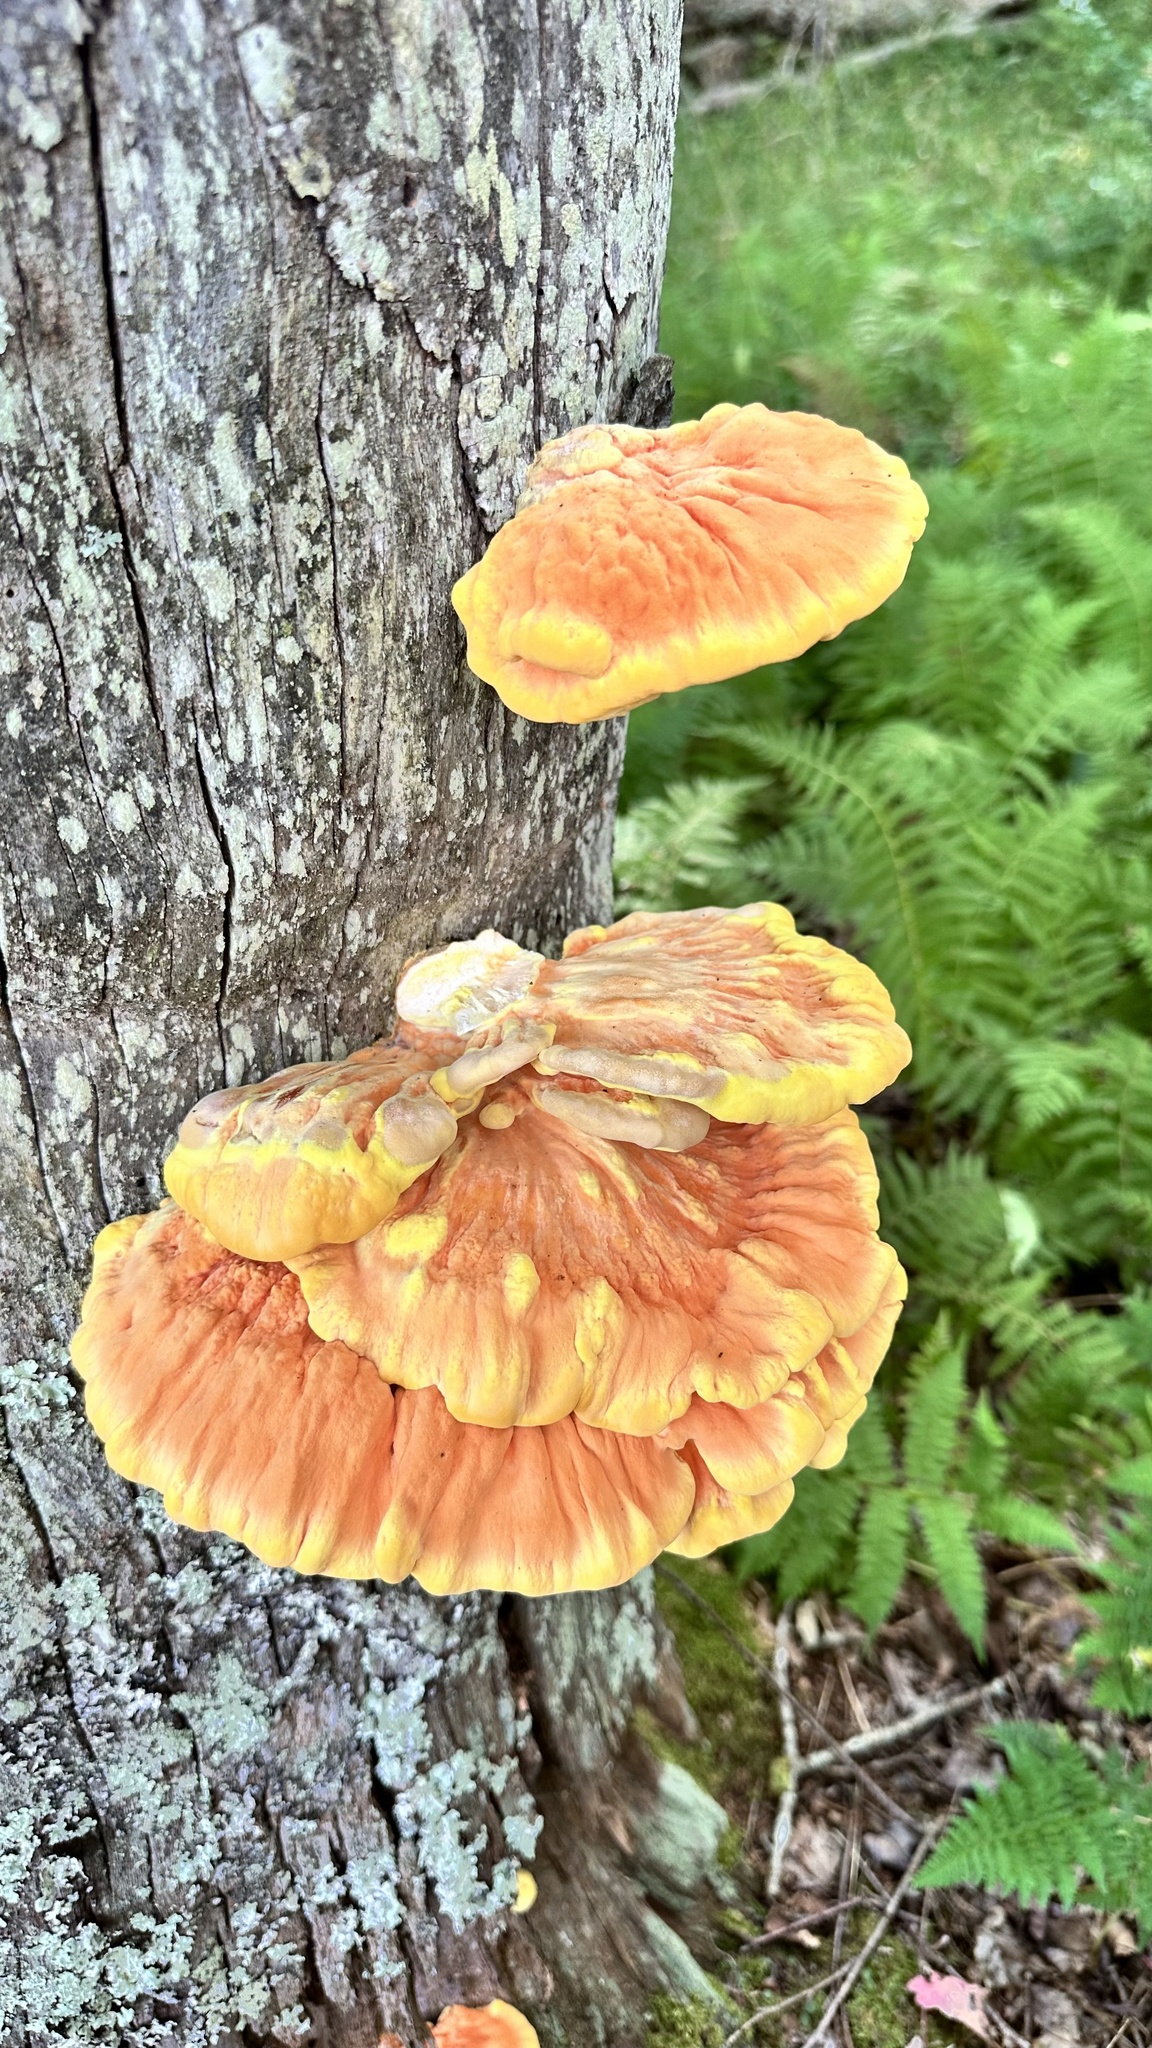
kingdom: Fungi
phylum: Basidiomycota
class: Agaricomycetes
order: Polyporales
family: Laetiporaceae
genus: Laetiporus
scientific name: Laetiporus sulphureus
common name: Chicken of the woods
